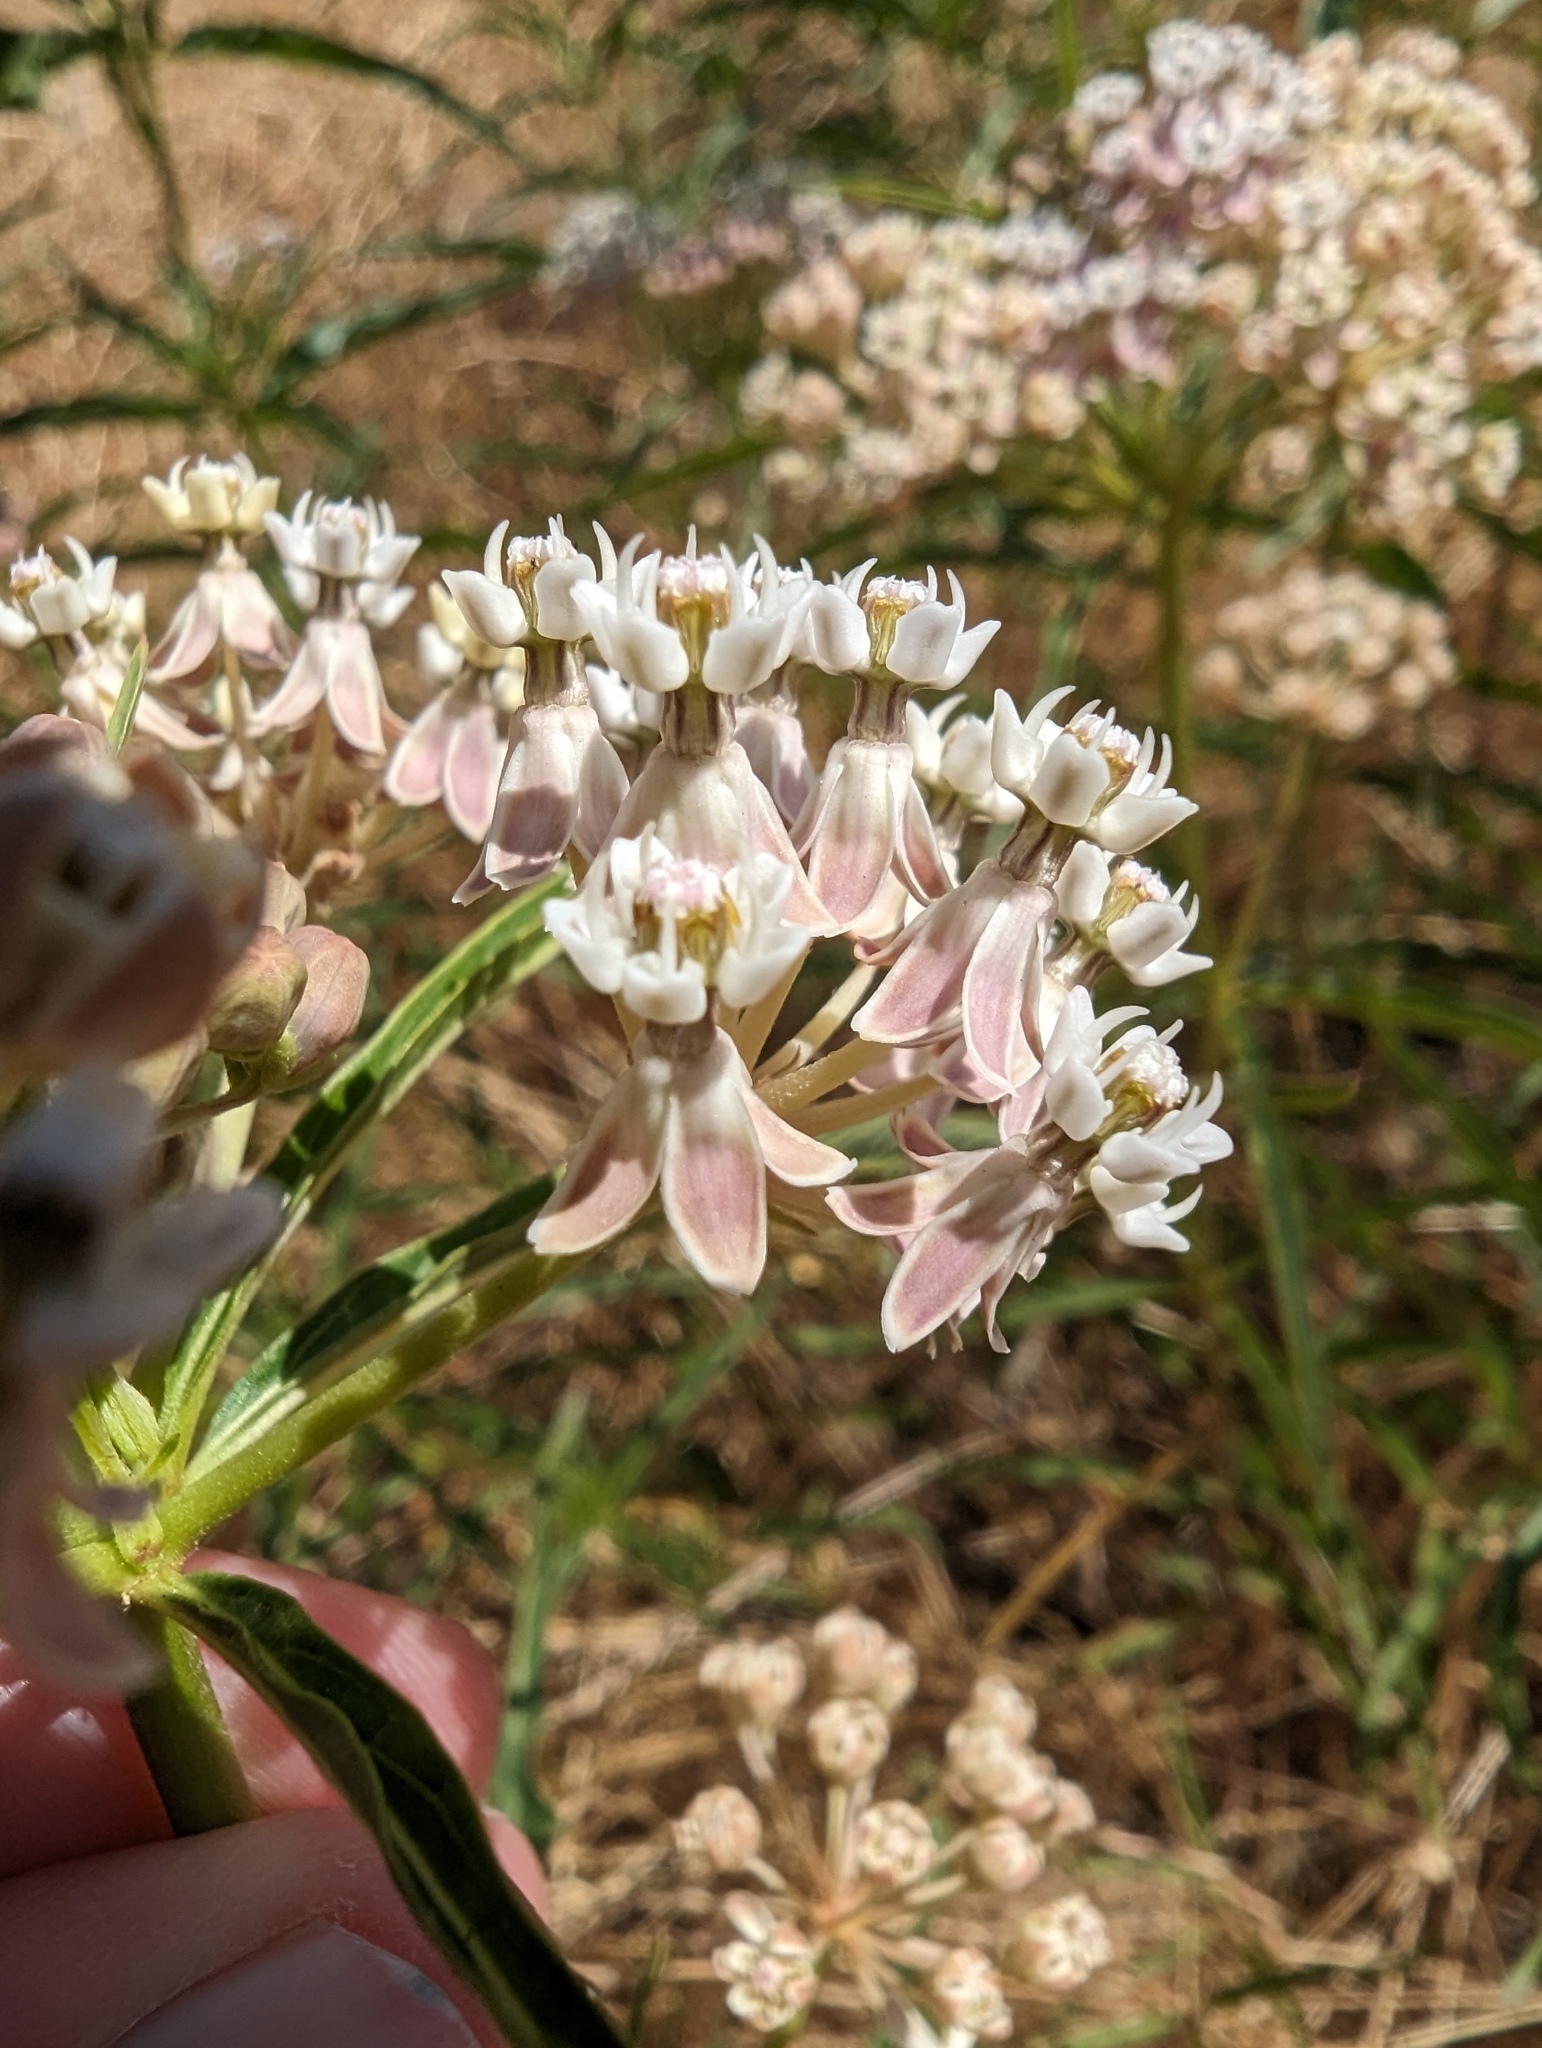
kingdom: Plantae
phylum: Tracheophyta
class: Magnoliopsida
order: Gentianales
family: Apocynaceae
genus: Asclepias
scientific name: Asclepias fascicularis
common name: Mexican milkweed
